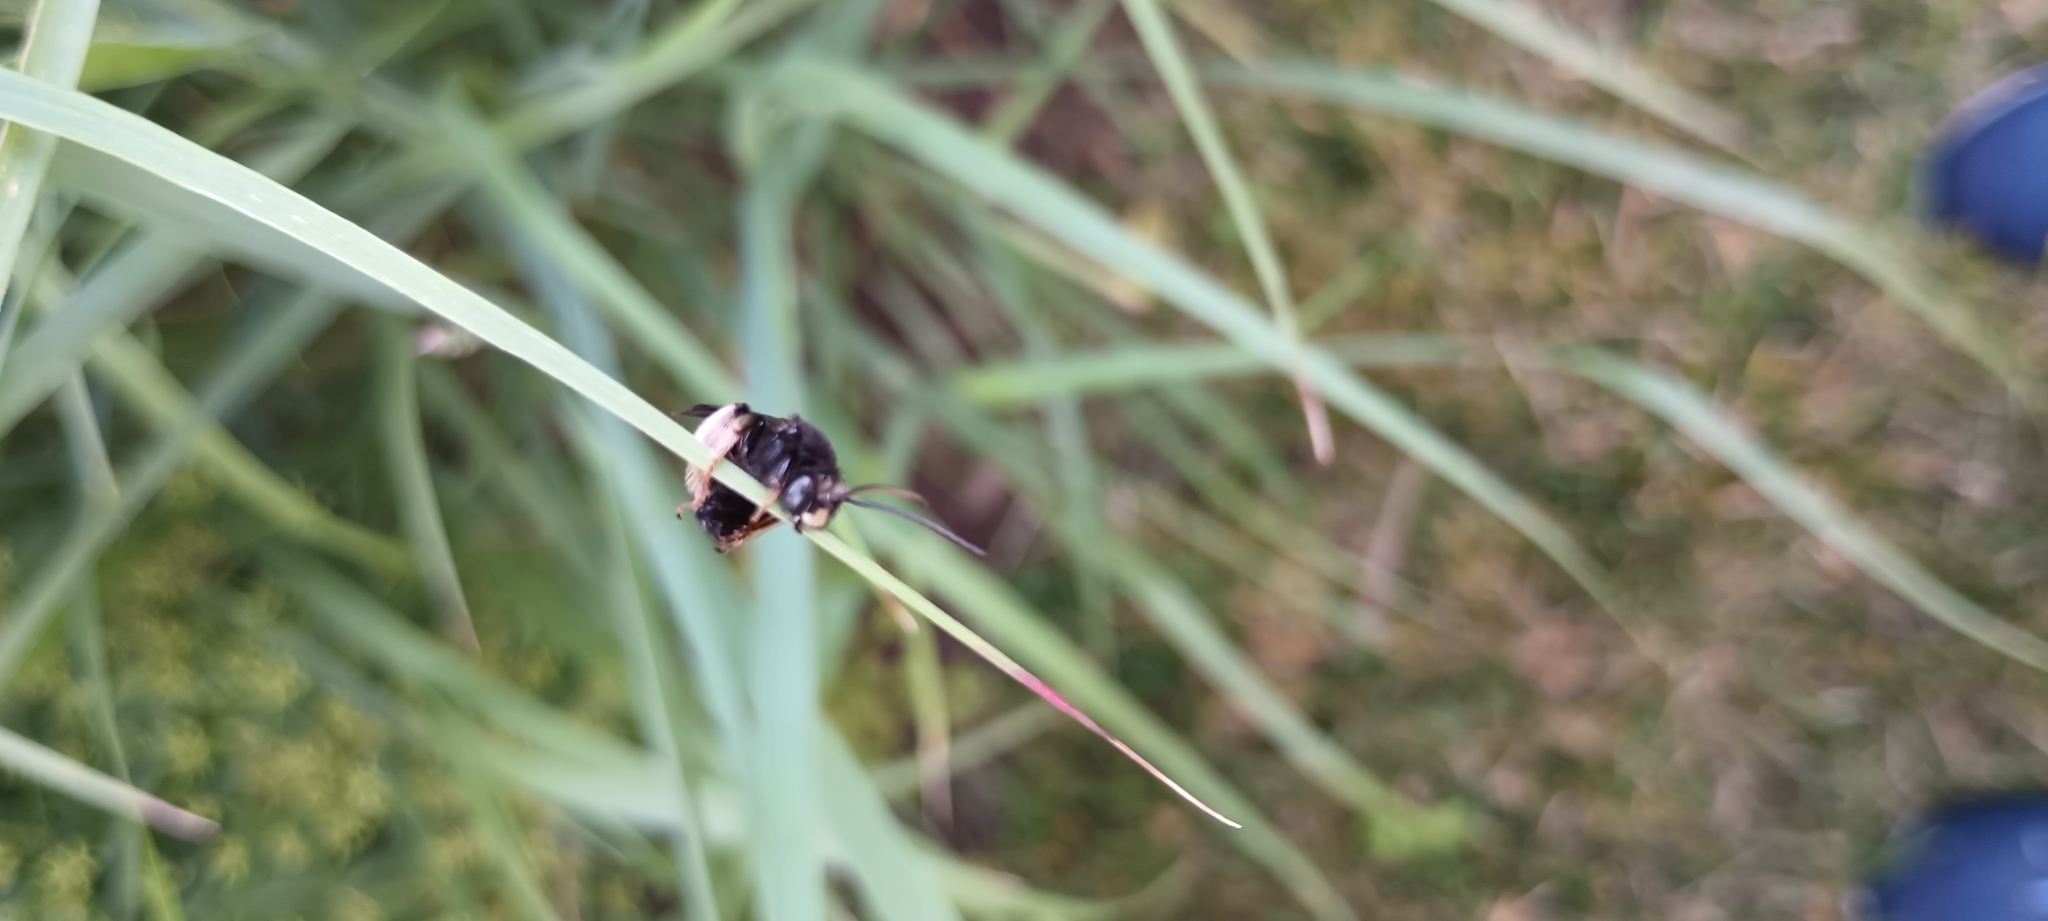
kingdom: Animalia
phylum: Arthropoda
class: Insecta
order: Hymenoptera
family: Apidae
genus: Melissodes
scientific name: Melissodes bimaculatus
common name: Two-spotted long-horned bee
